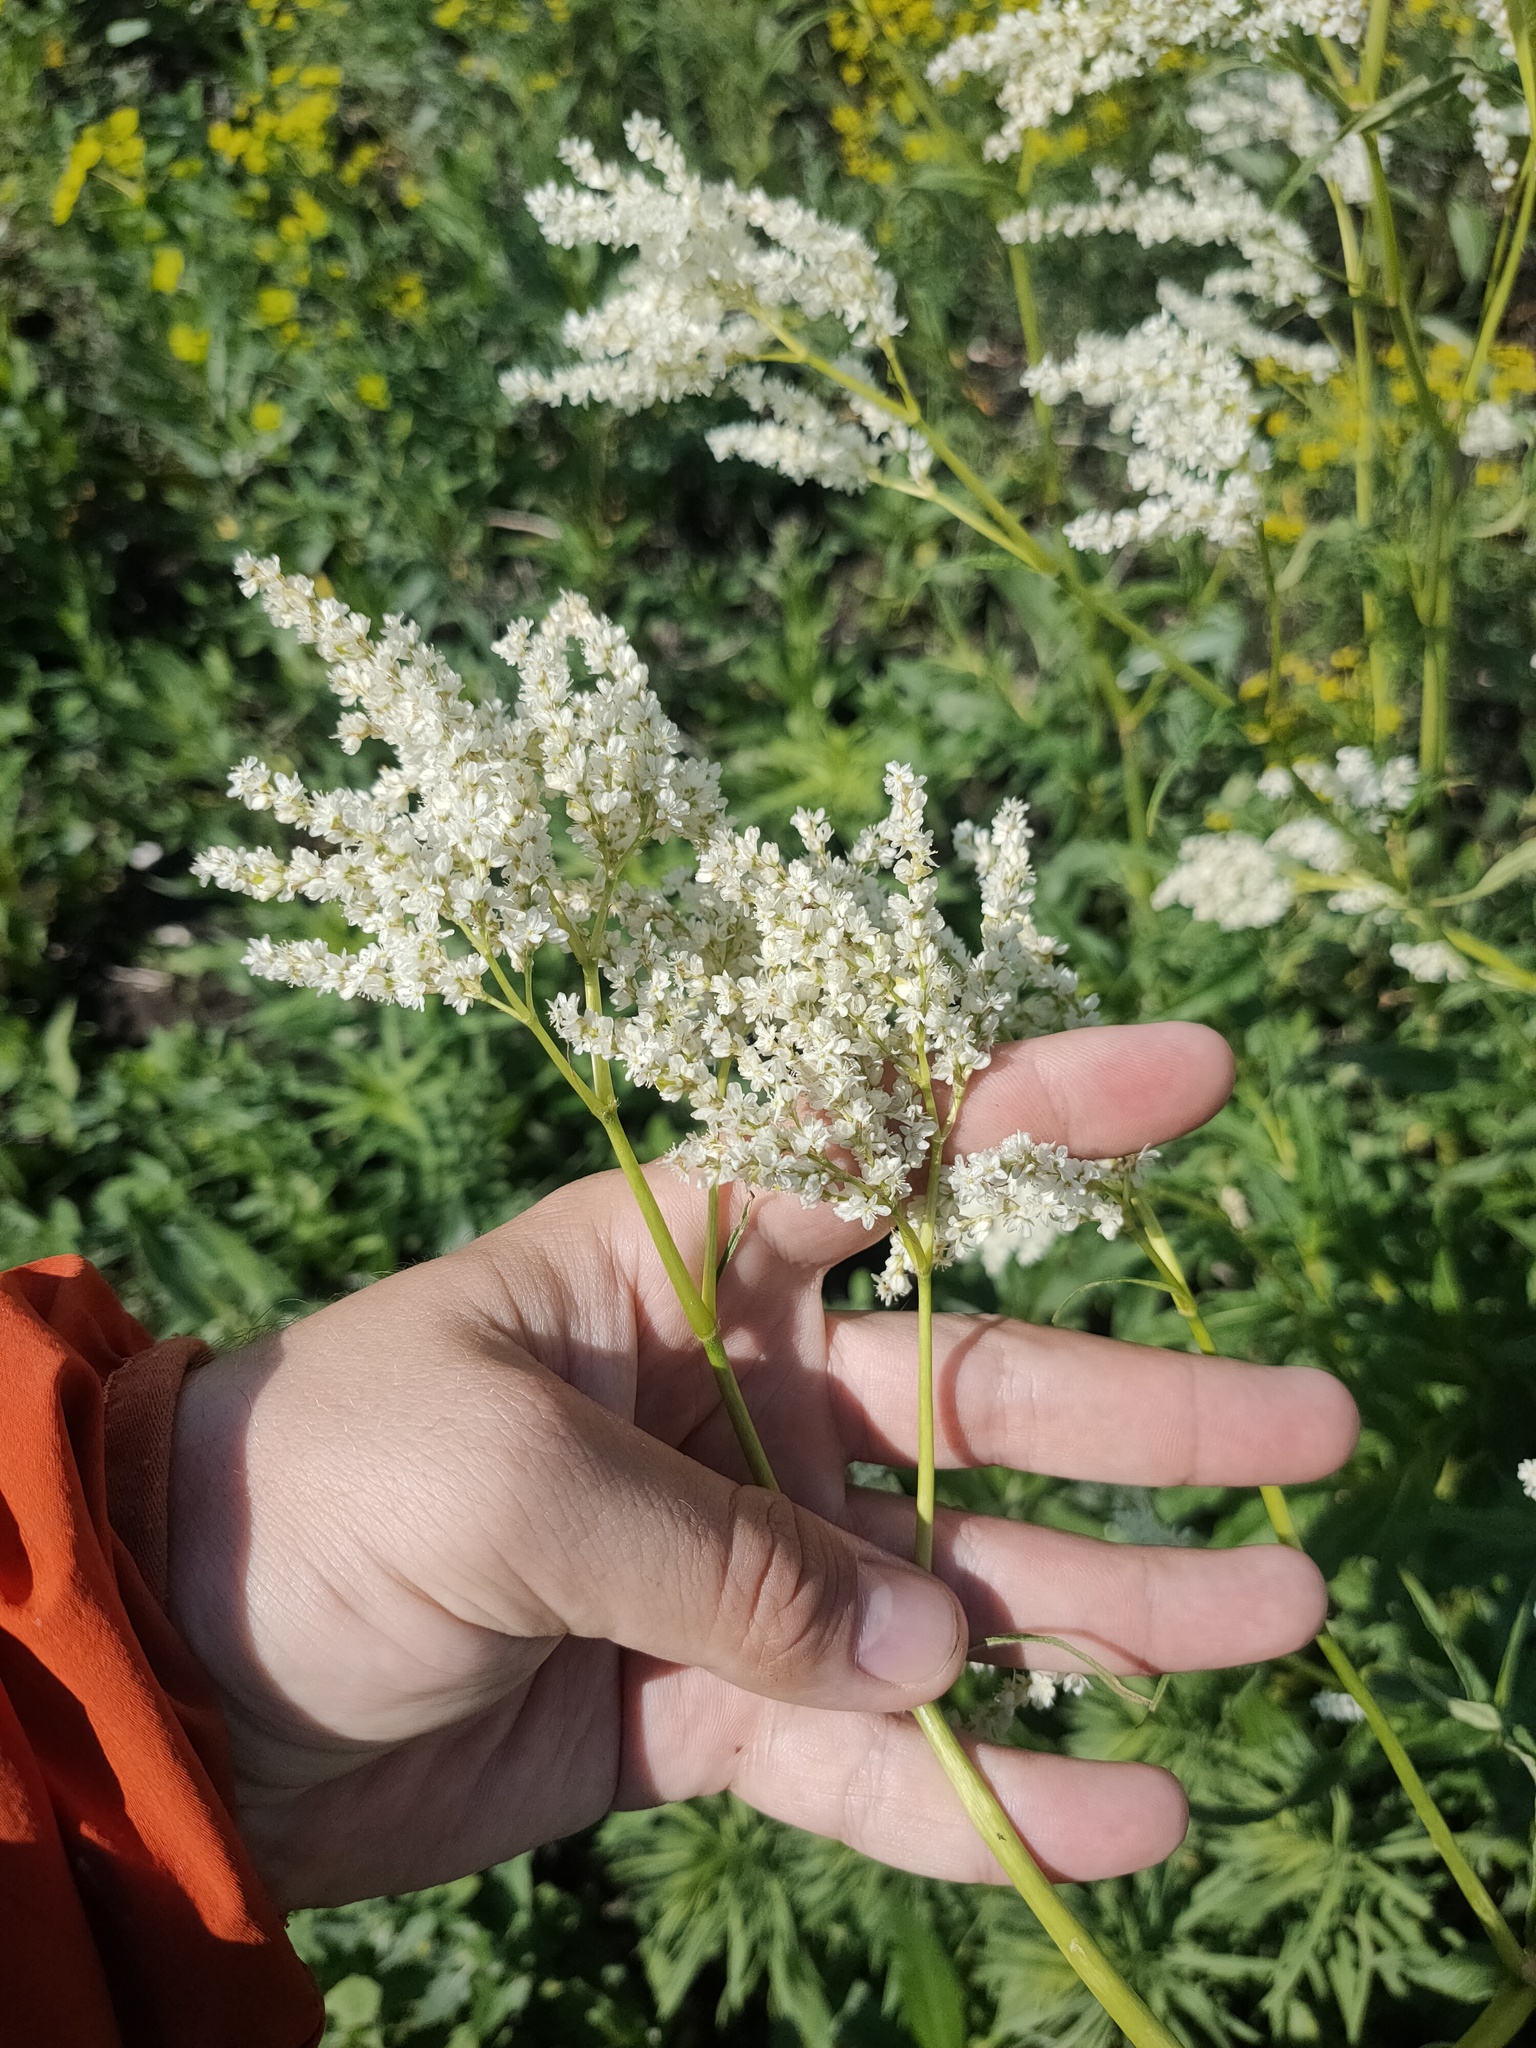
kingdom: Plantae
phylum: Tracheophyta
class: Magnoliopsida
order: Caryophyllales
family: Polygonaceae
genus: Koenigia
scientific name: Koenigia alpina
